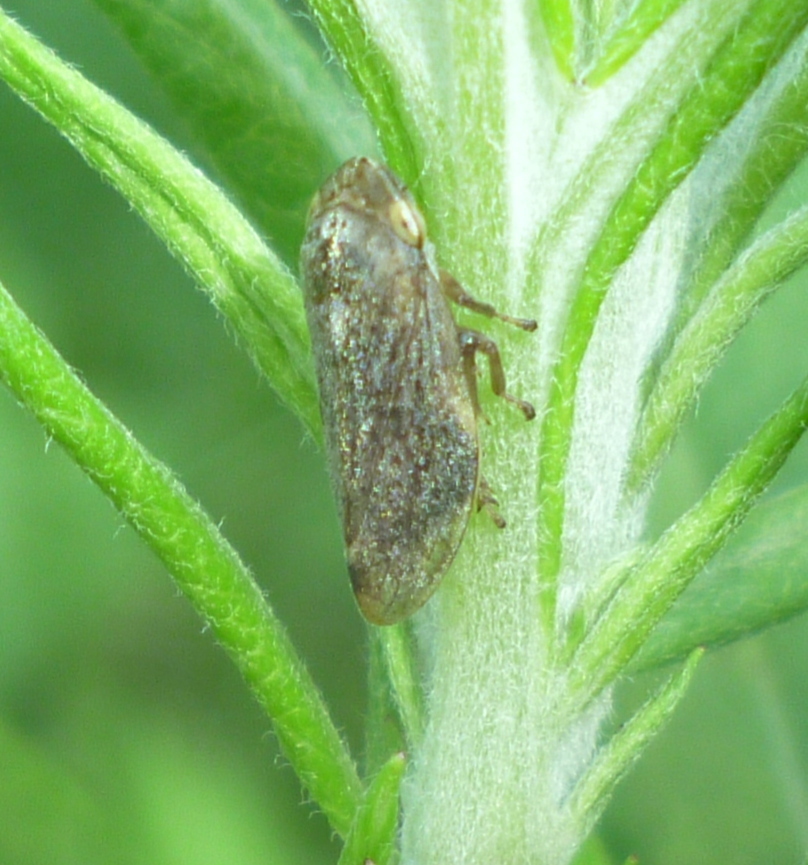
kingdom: Animalia
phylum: Arthropoda
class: Insecta
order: Hemiptera
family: Aphrophoridae
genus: Philaenus
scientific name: Philaenus spumarius
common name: Meadow spittlebug
